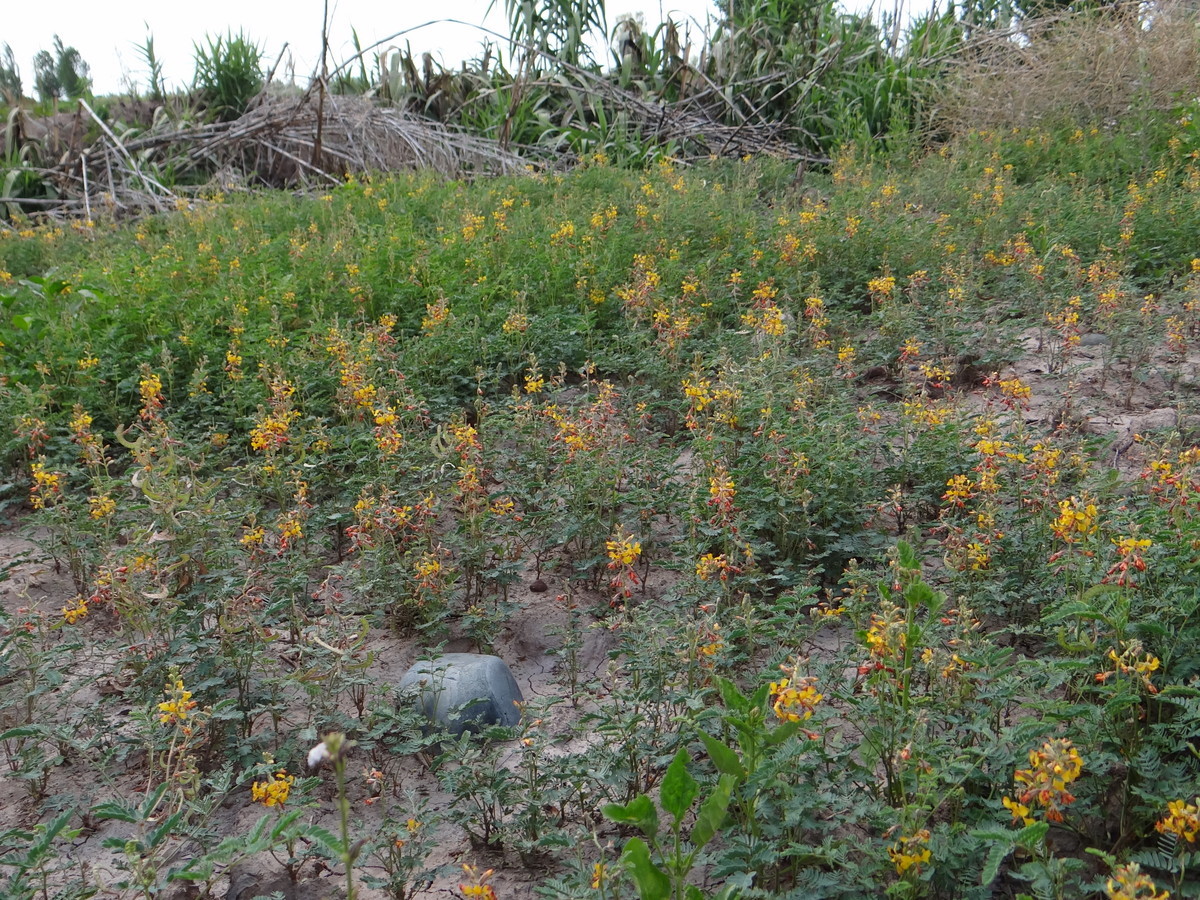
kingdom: Plantae
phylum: Tracheophyta
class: Magnoliopsida
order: Fabales
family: Fabaceae
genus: Hoffmannseggia
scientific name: Hoffmannseggia glauca
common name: Pignut
